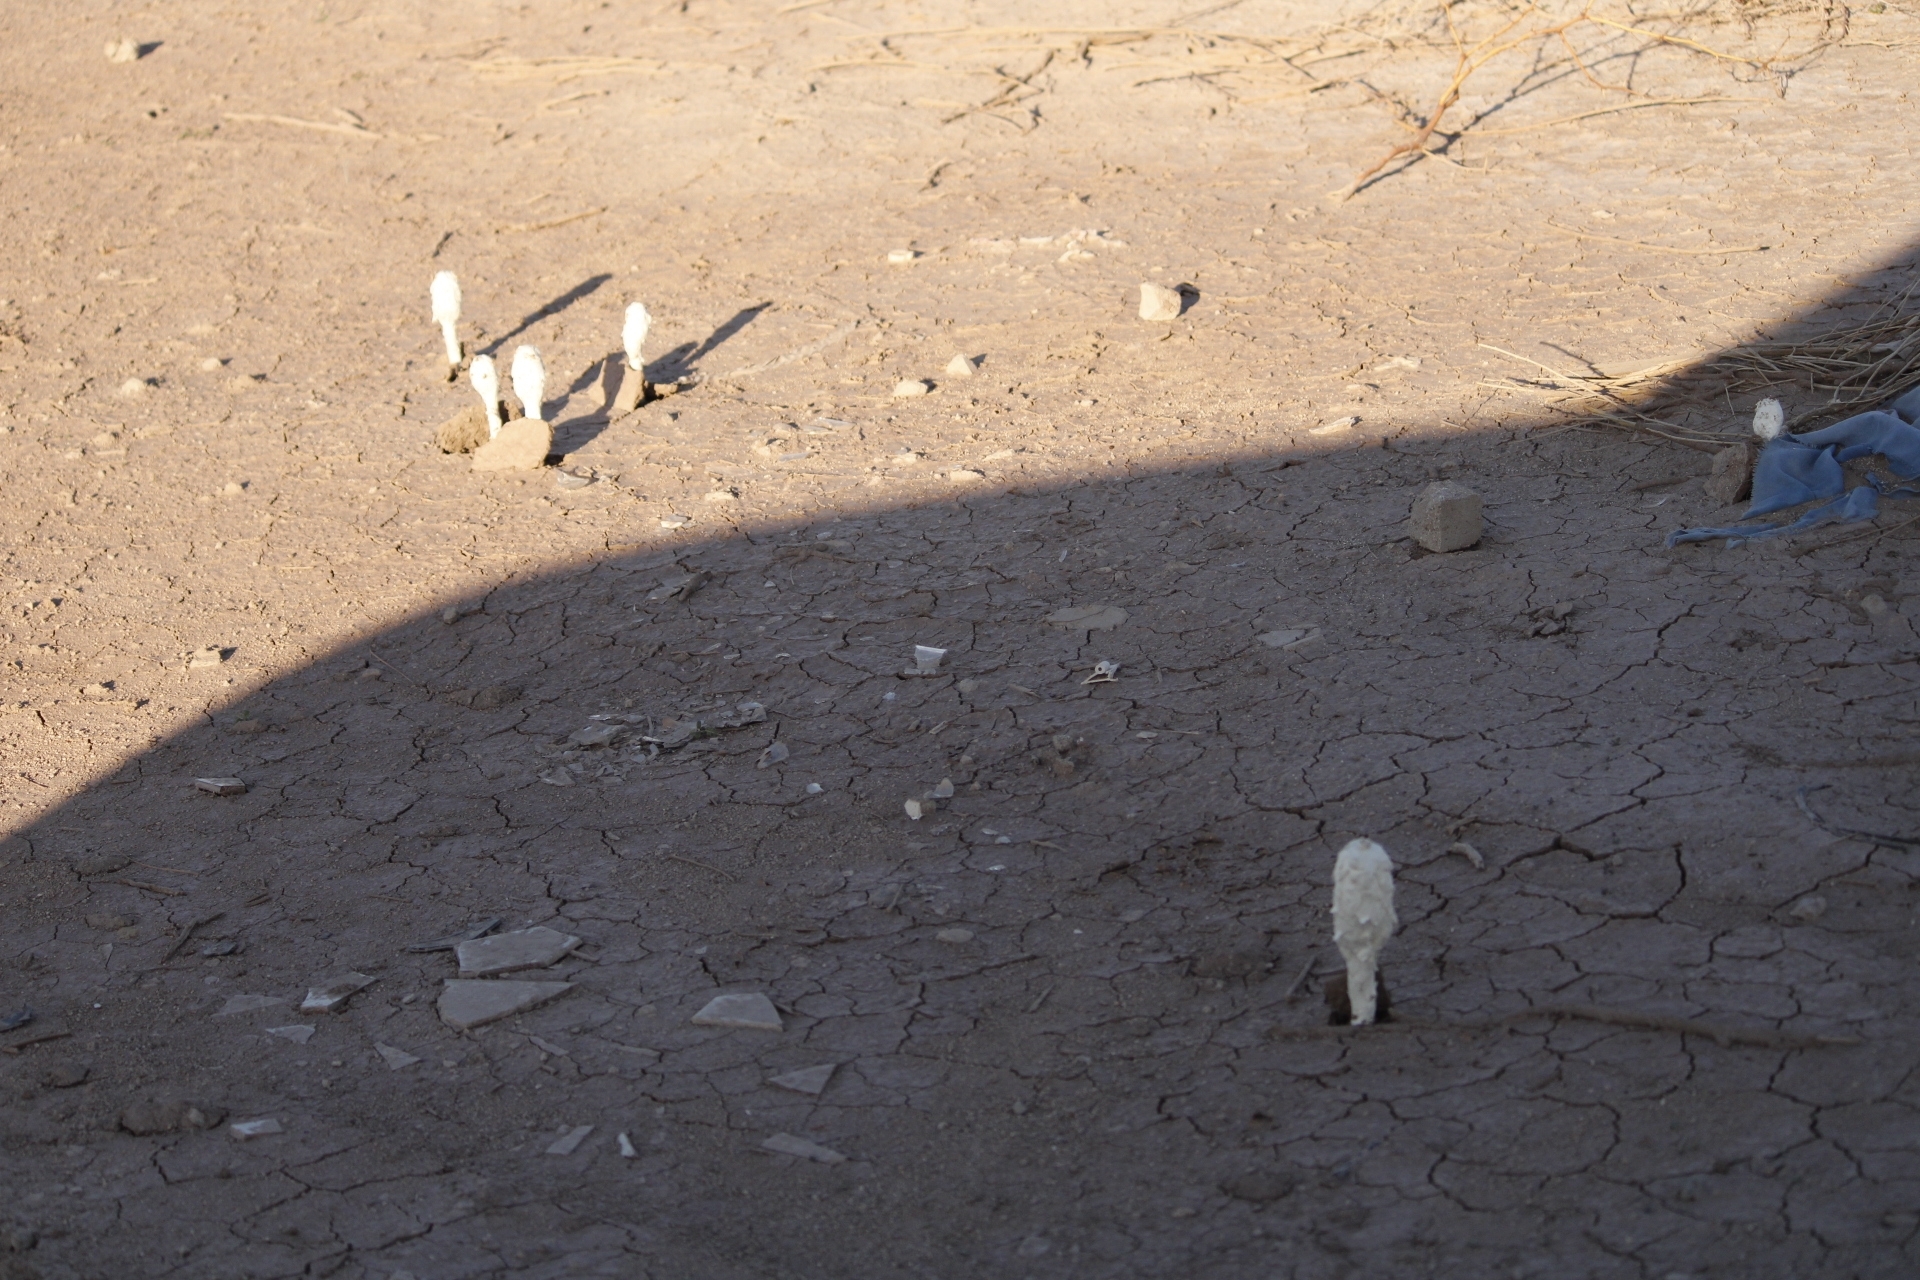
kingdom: Fungi
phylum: Basidiomycota
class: Agaricomycetes
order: Agaricales
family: Agaricaceae
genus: Podaxis
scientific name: Podaxis pistillaris
